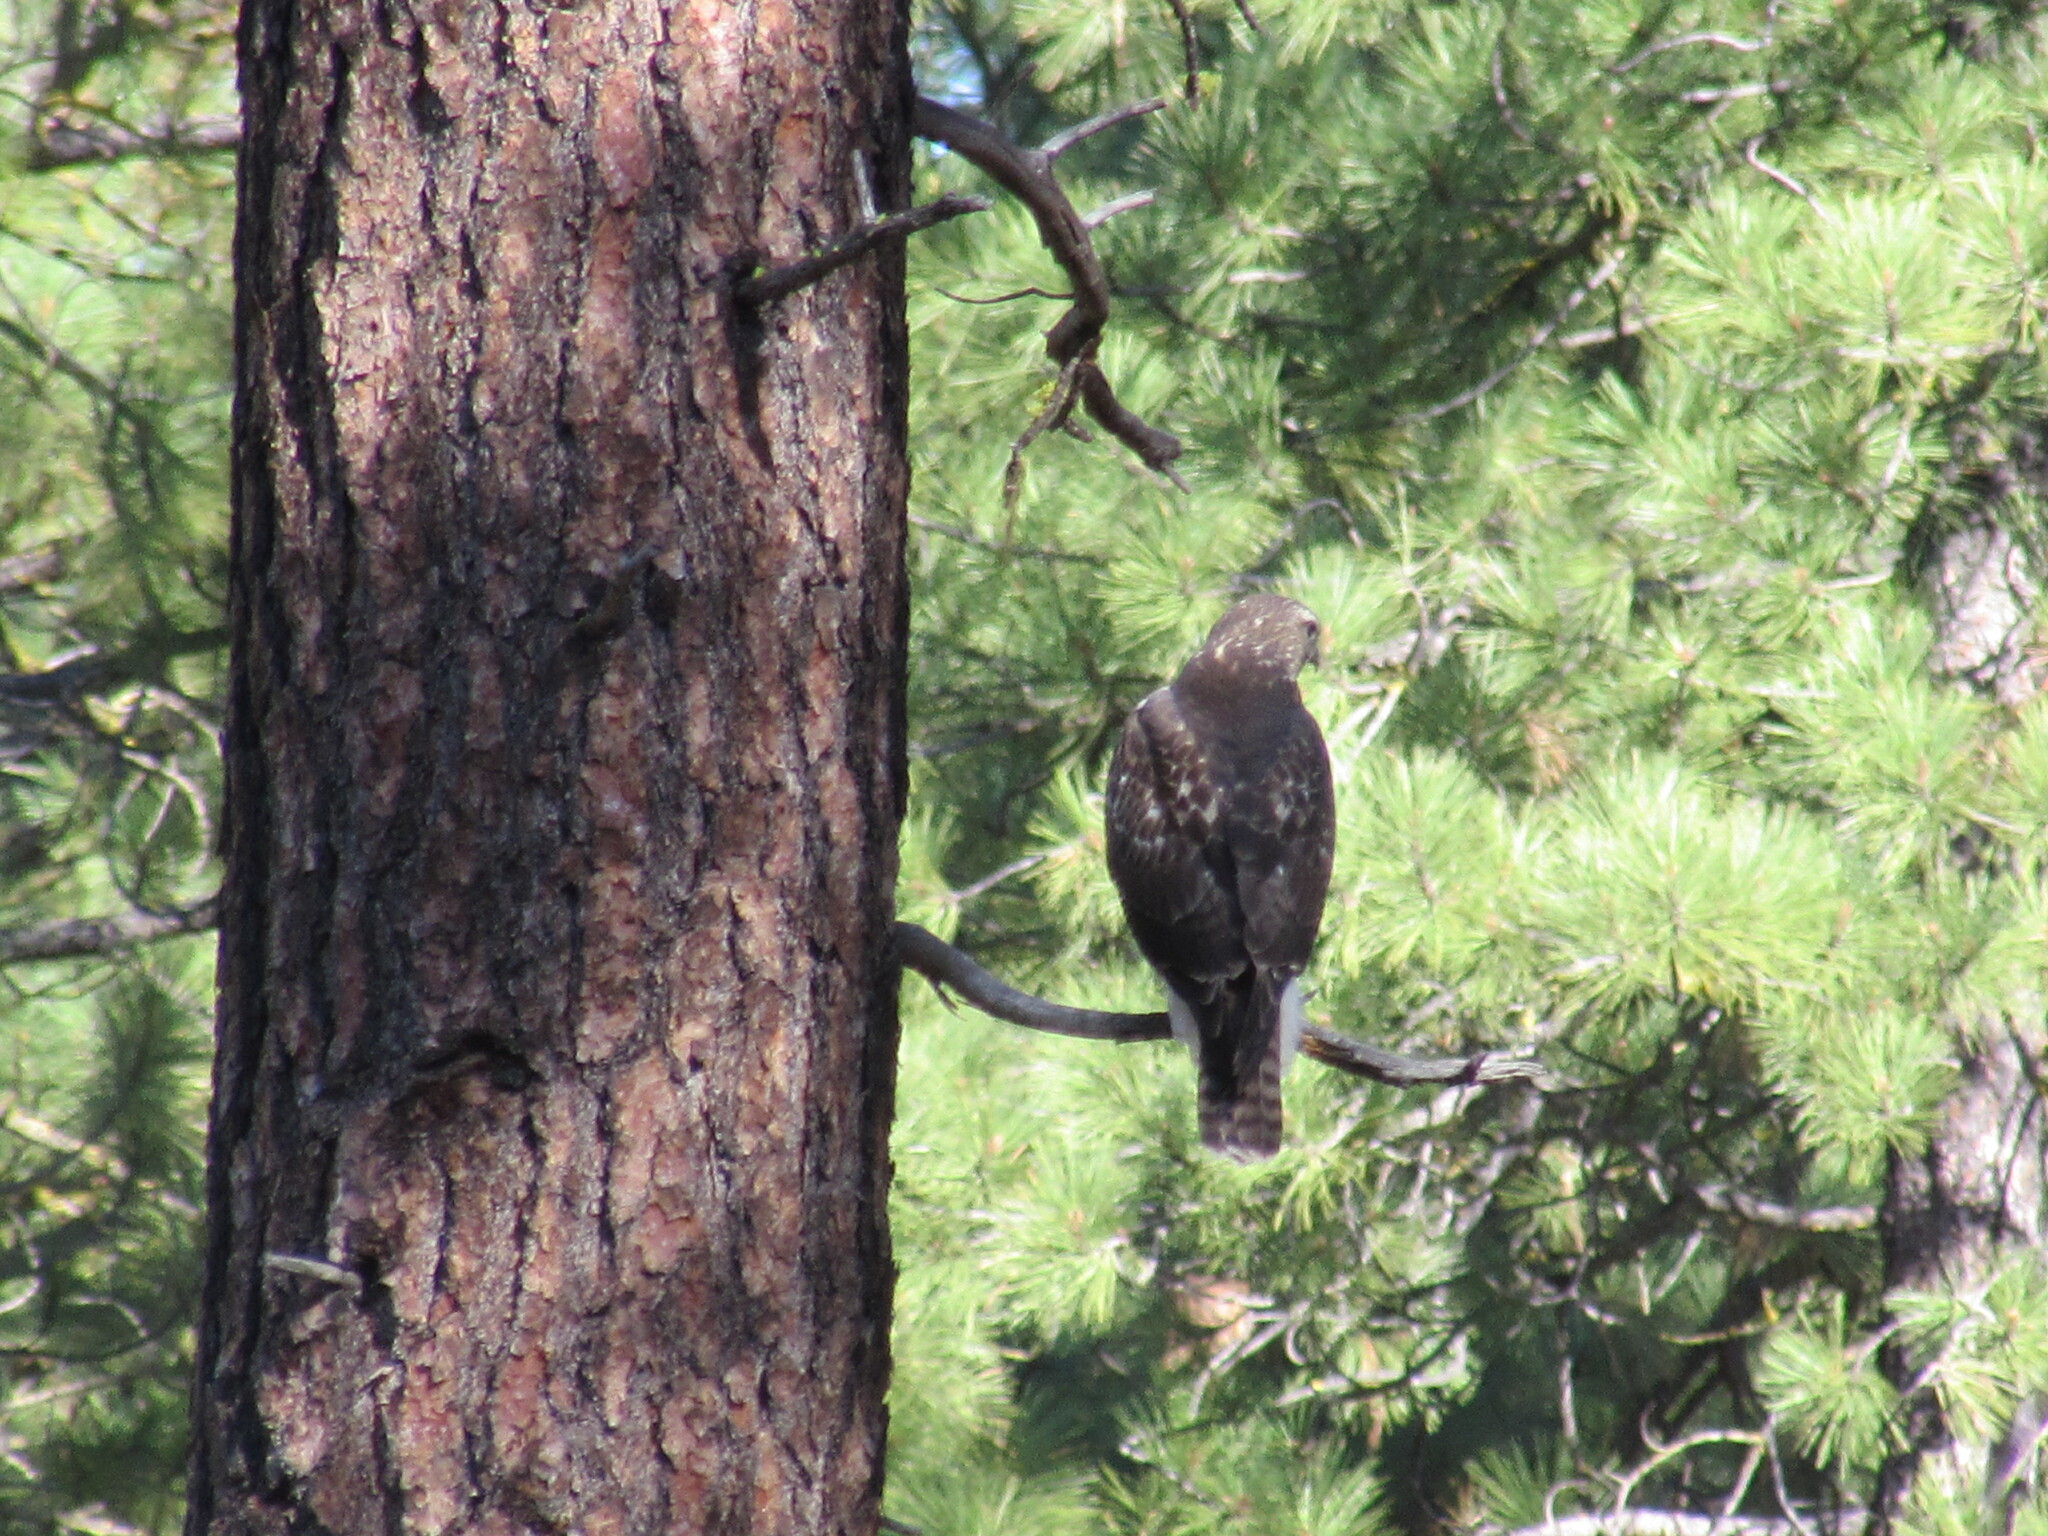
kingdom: Animalia
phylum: Chordata
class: Aves
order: Accipitriformes
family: Accipitridae
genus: Buteo
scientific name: Buteo jamaicensis
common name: Red-tailed hawk
